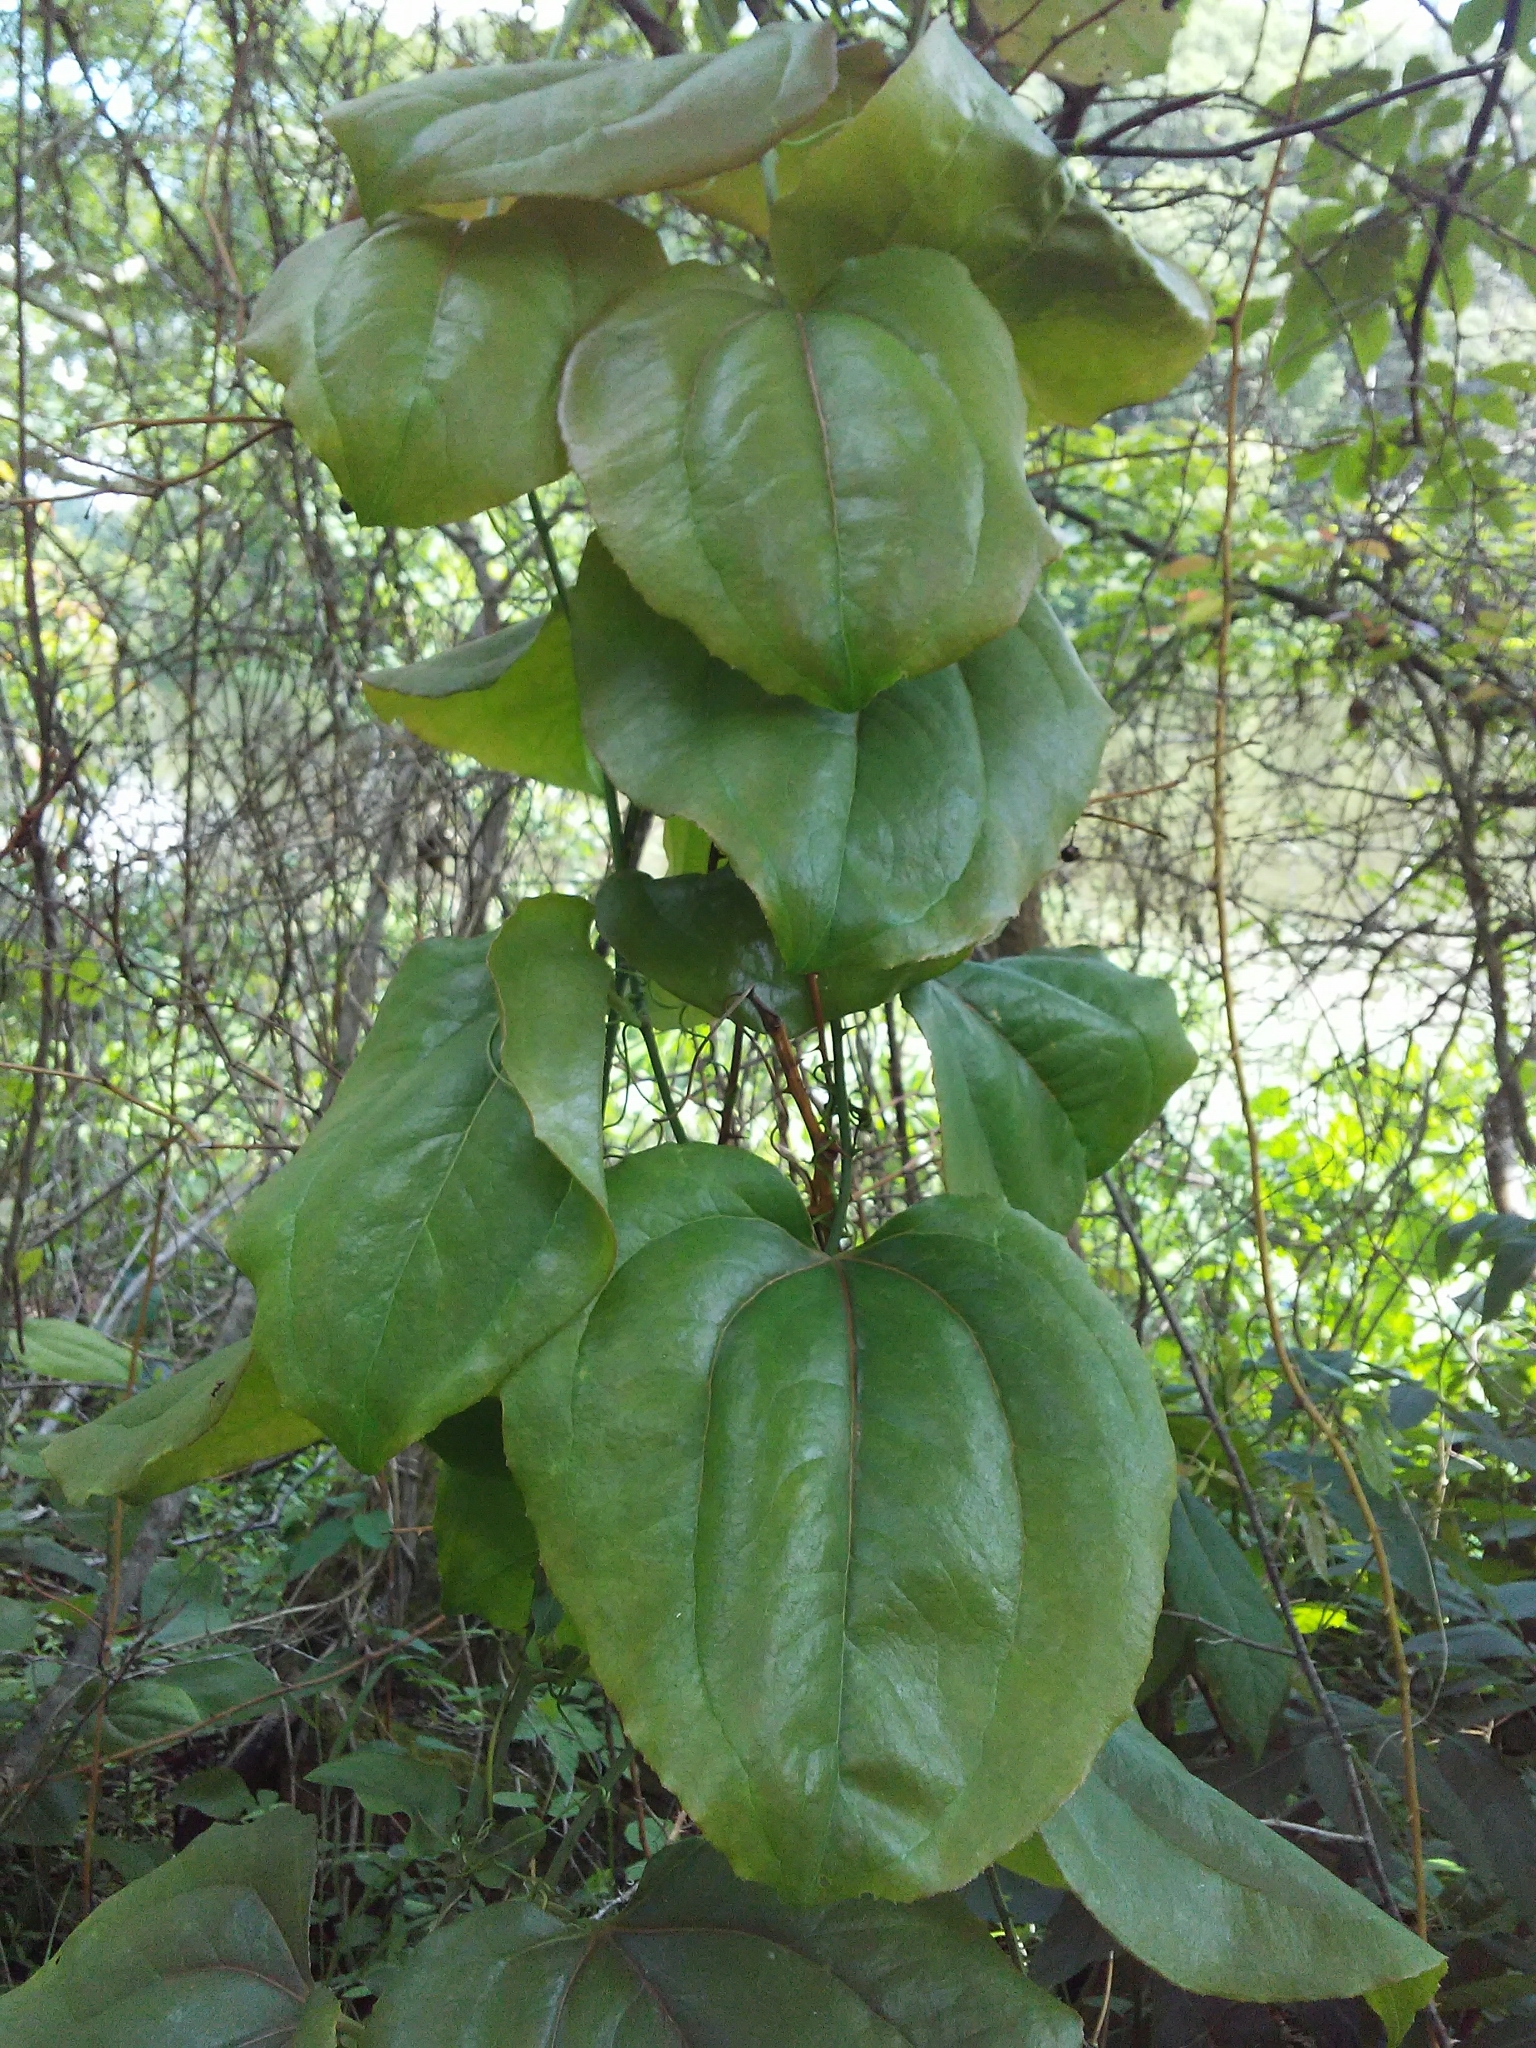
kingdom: Plantae
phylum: Tracheophyta
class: Liliopsida
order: Liliales
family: Smilacaceae
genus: Smilax
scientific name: Smilax rotundifolia
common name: Bullbriar
